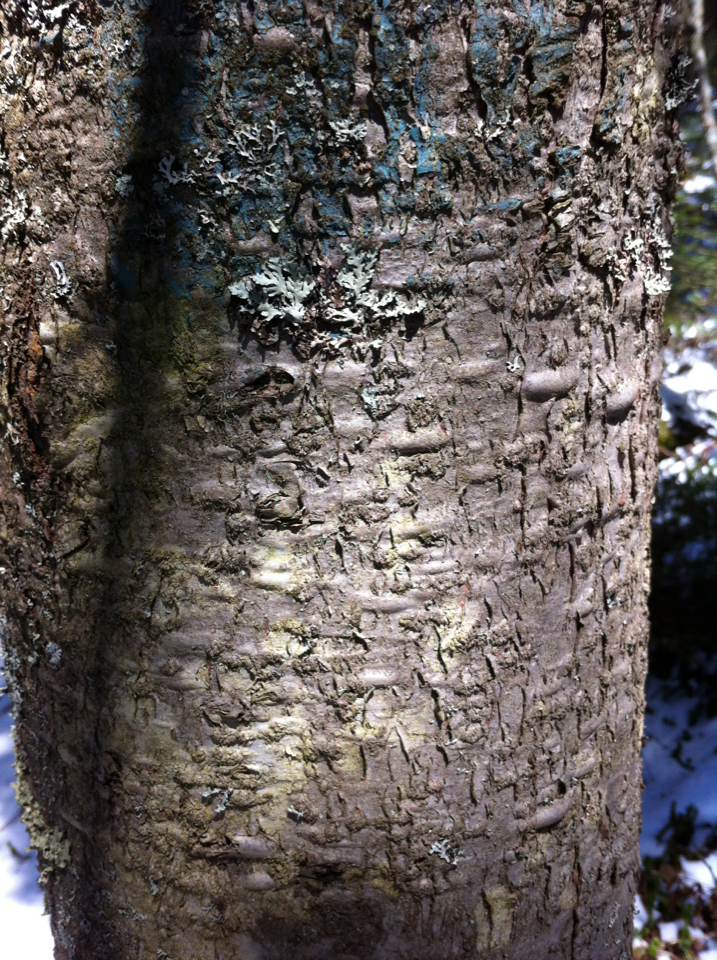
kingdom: Plantae
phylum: Tracheophyta
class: Pinopsida
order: Pinales
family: Pinaceae
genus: Abies
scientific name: Abies balsamea
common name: Balsam fir
